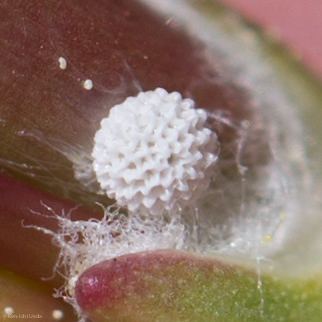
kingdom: Animalia
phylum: Arthropoda
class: Insecta
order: Lepidoptera
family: Lycaenidae
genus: Tharsalea
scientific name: Tharsalea gorgon
